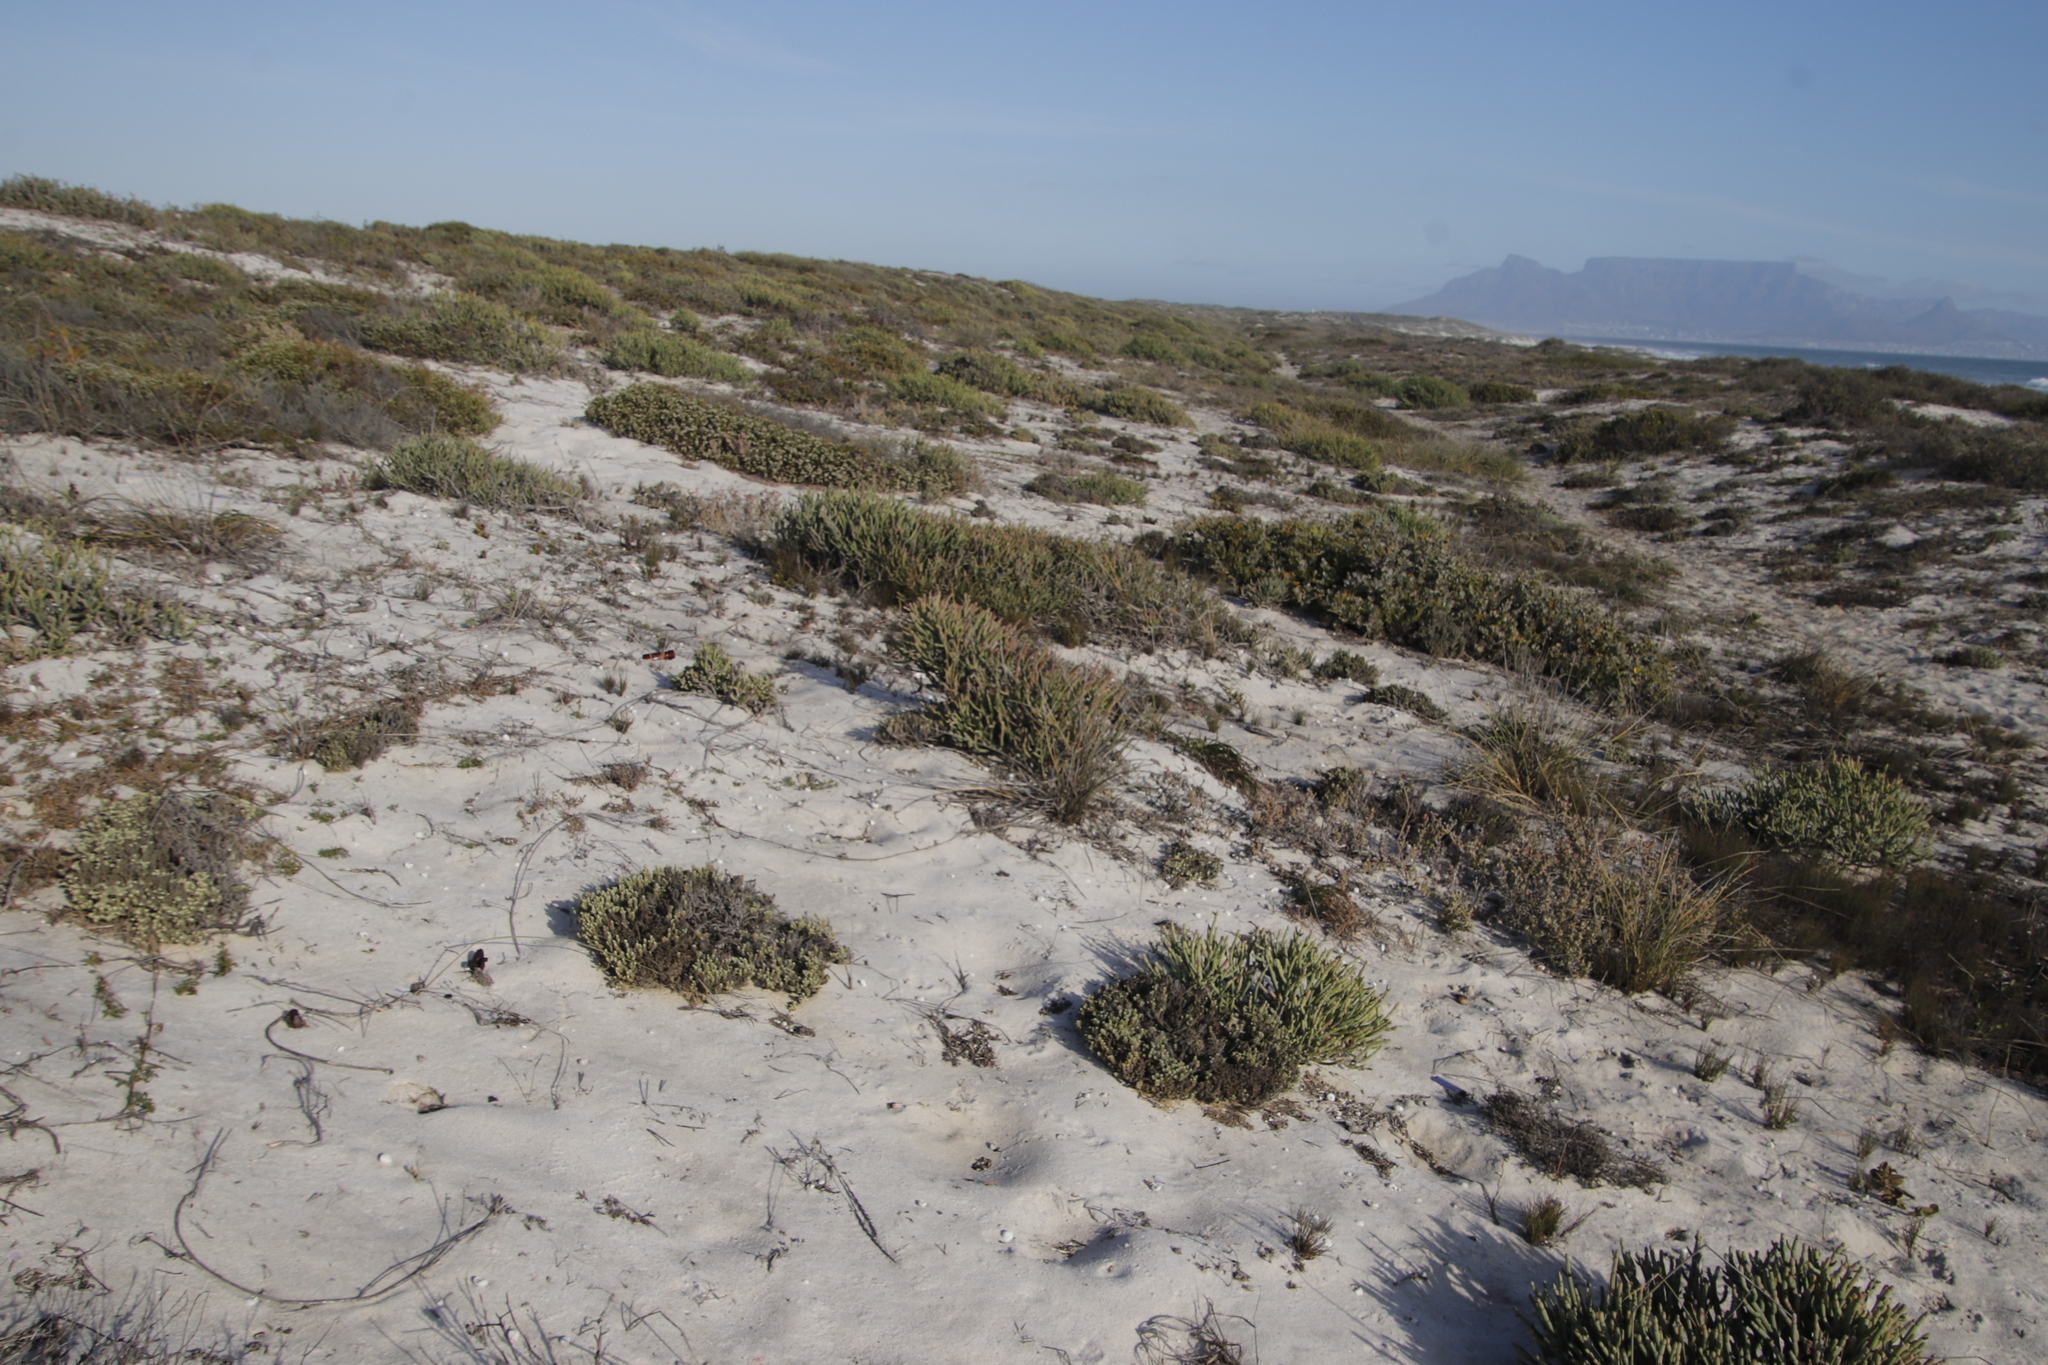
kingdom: Plantae
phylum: Tracheophyta
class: Magnoliopsida
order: Malpighiales
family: Euphorbiaceae
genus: Euphorbia
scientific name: Euphorbia burmanni
